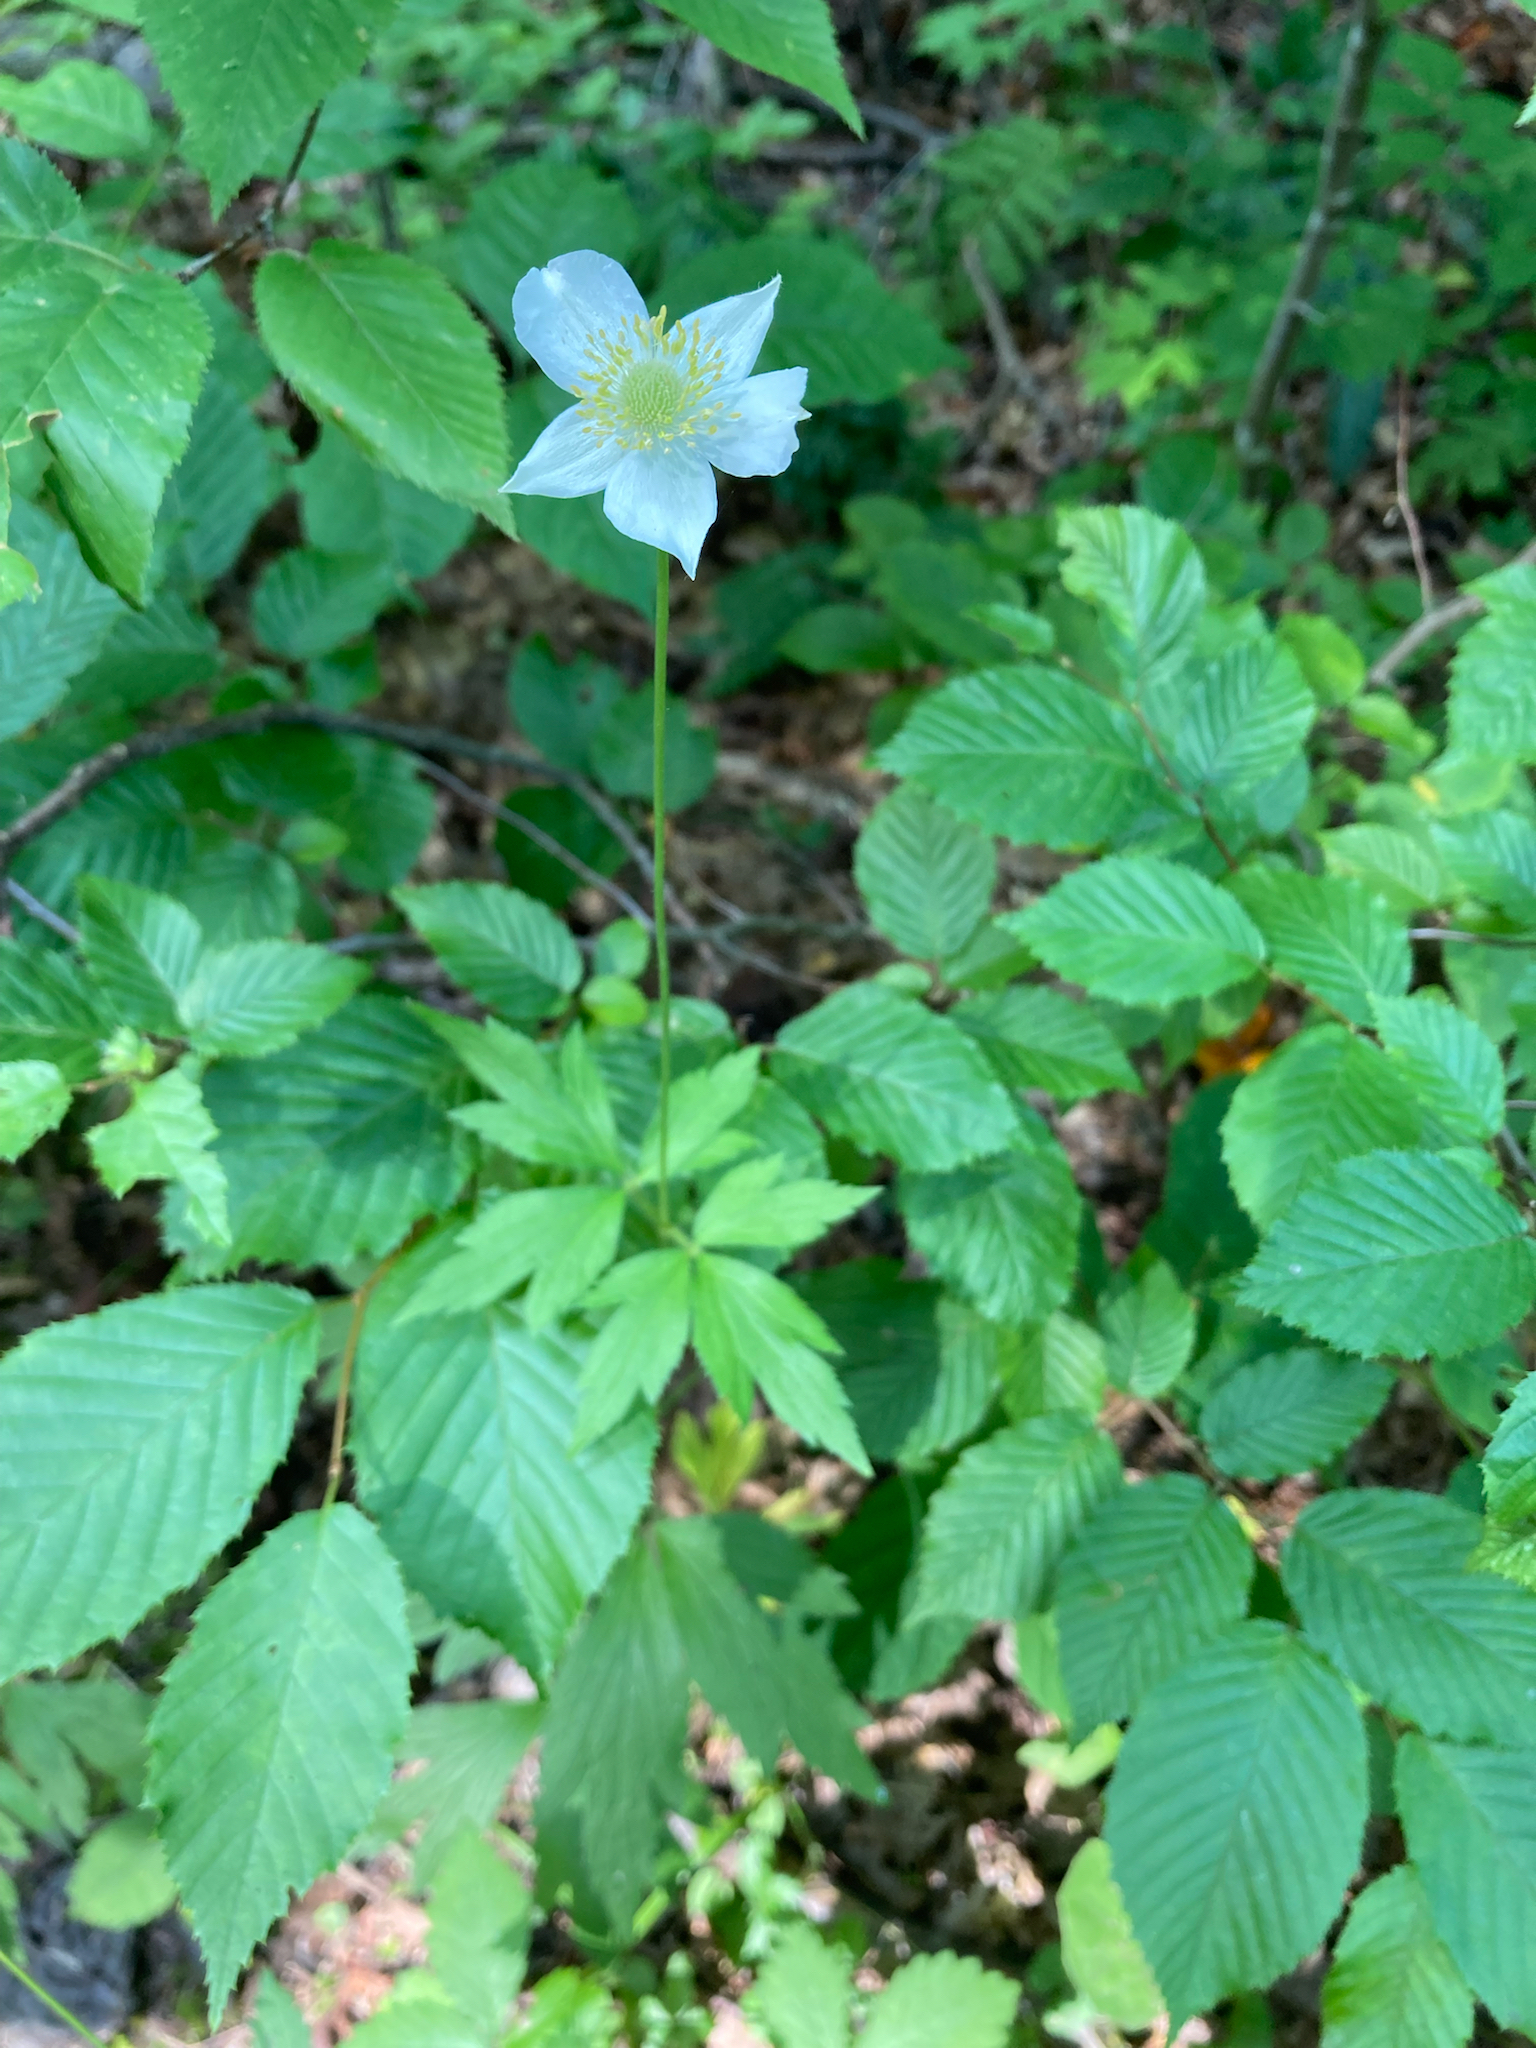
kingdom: Plantae
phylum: Tracheophyta
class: Magnoliopsida
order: Ranunculales
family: Ranunculaceae
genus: Anemone
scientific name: Anemone virginiana
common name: Tall anemone
